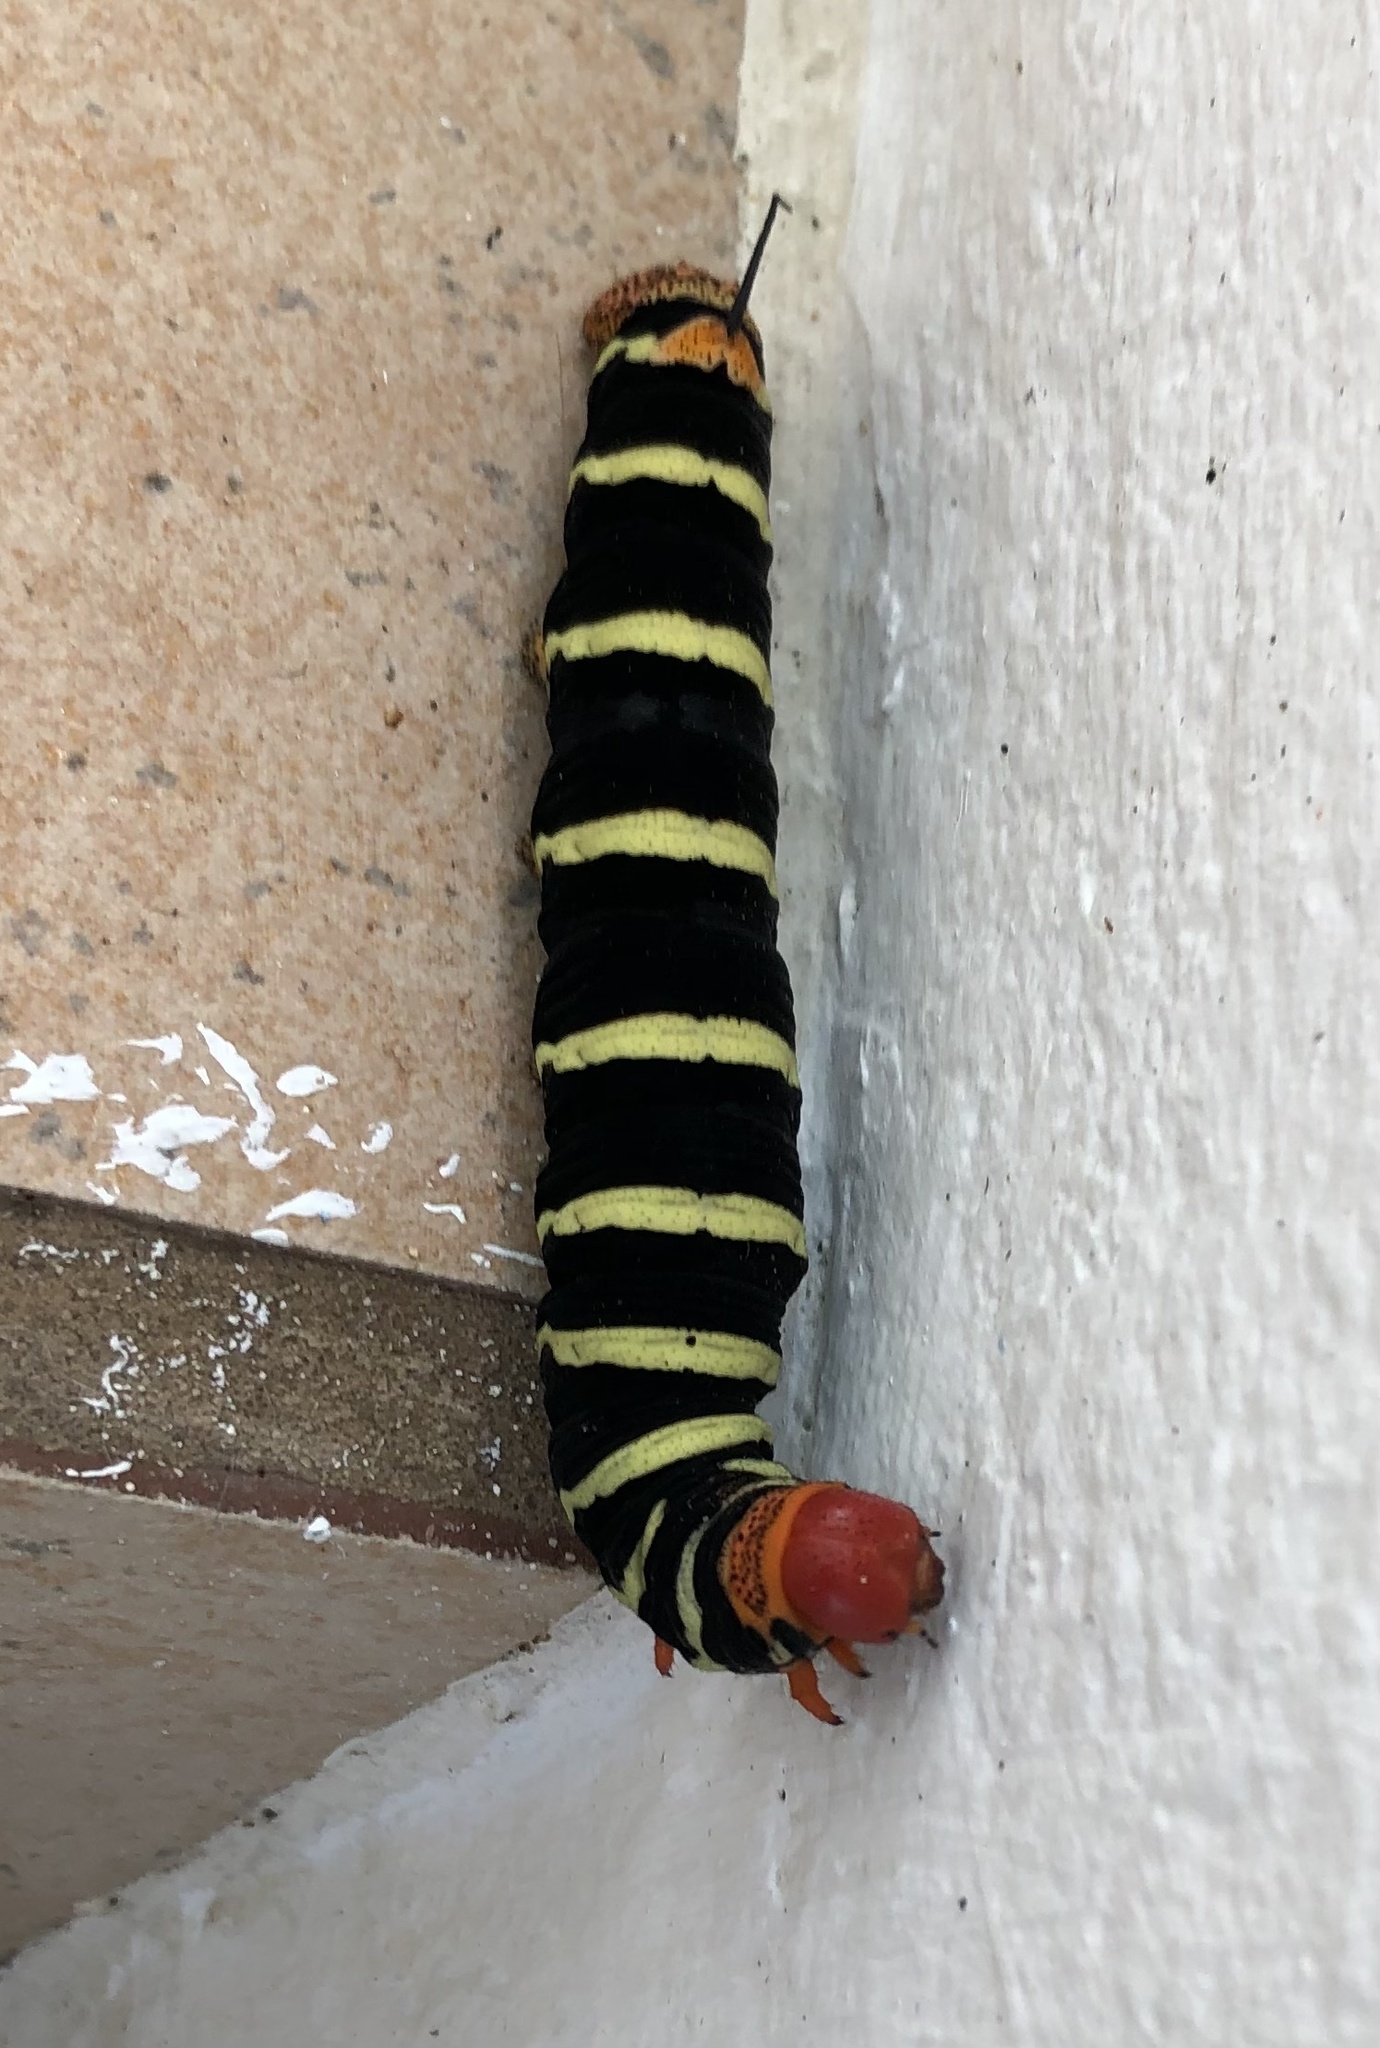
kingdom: Animalia
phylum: Arthropoda
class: Insecta
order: Lepidoptera
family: Sphingidae
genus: Pseudosphinx
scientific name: Pseudosphinx tetrio
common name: Tetrio sphinx
